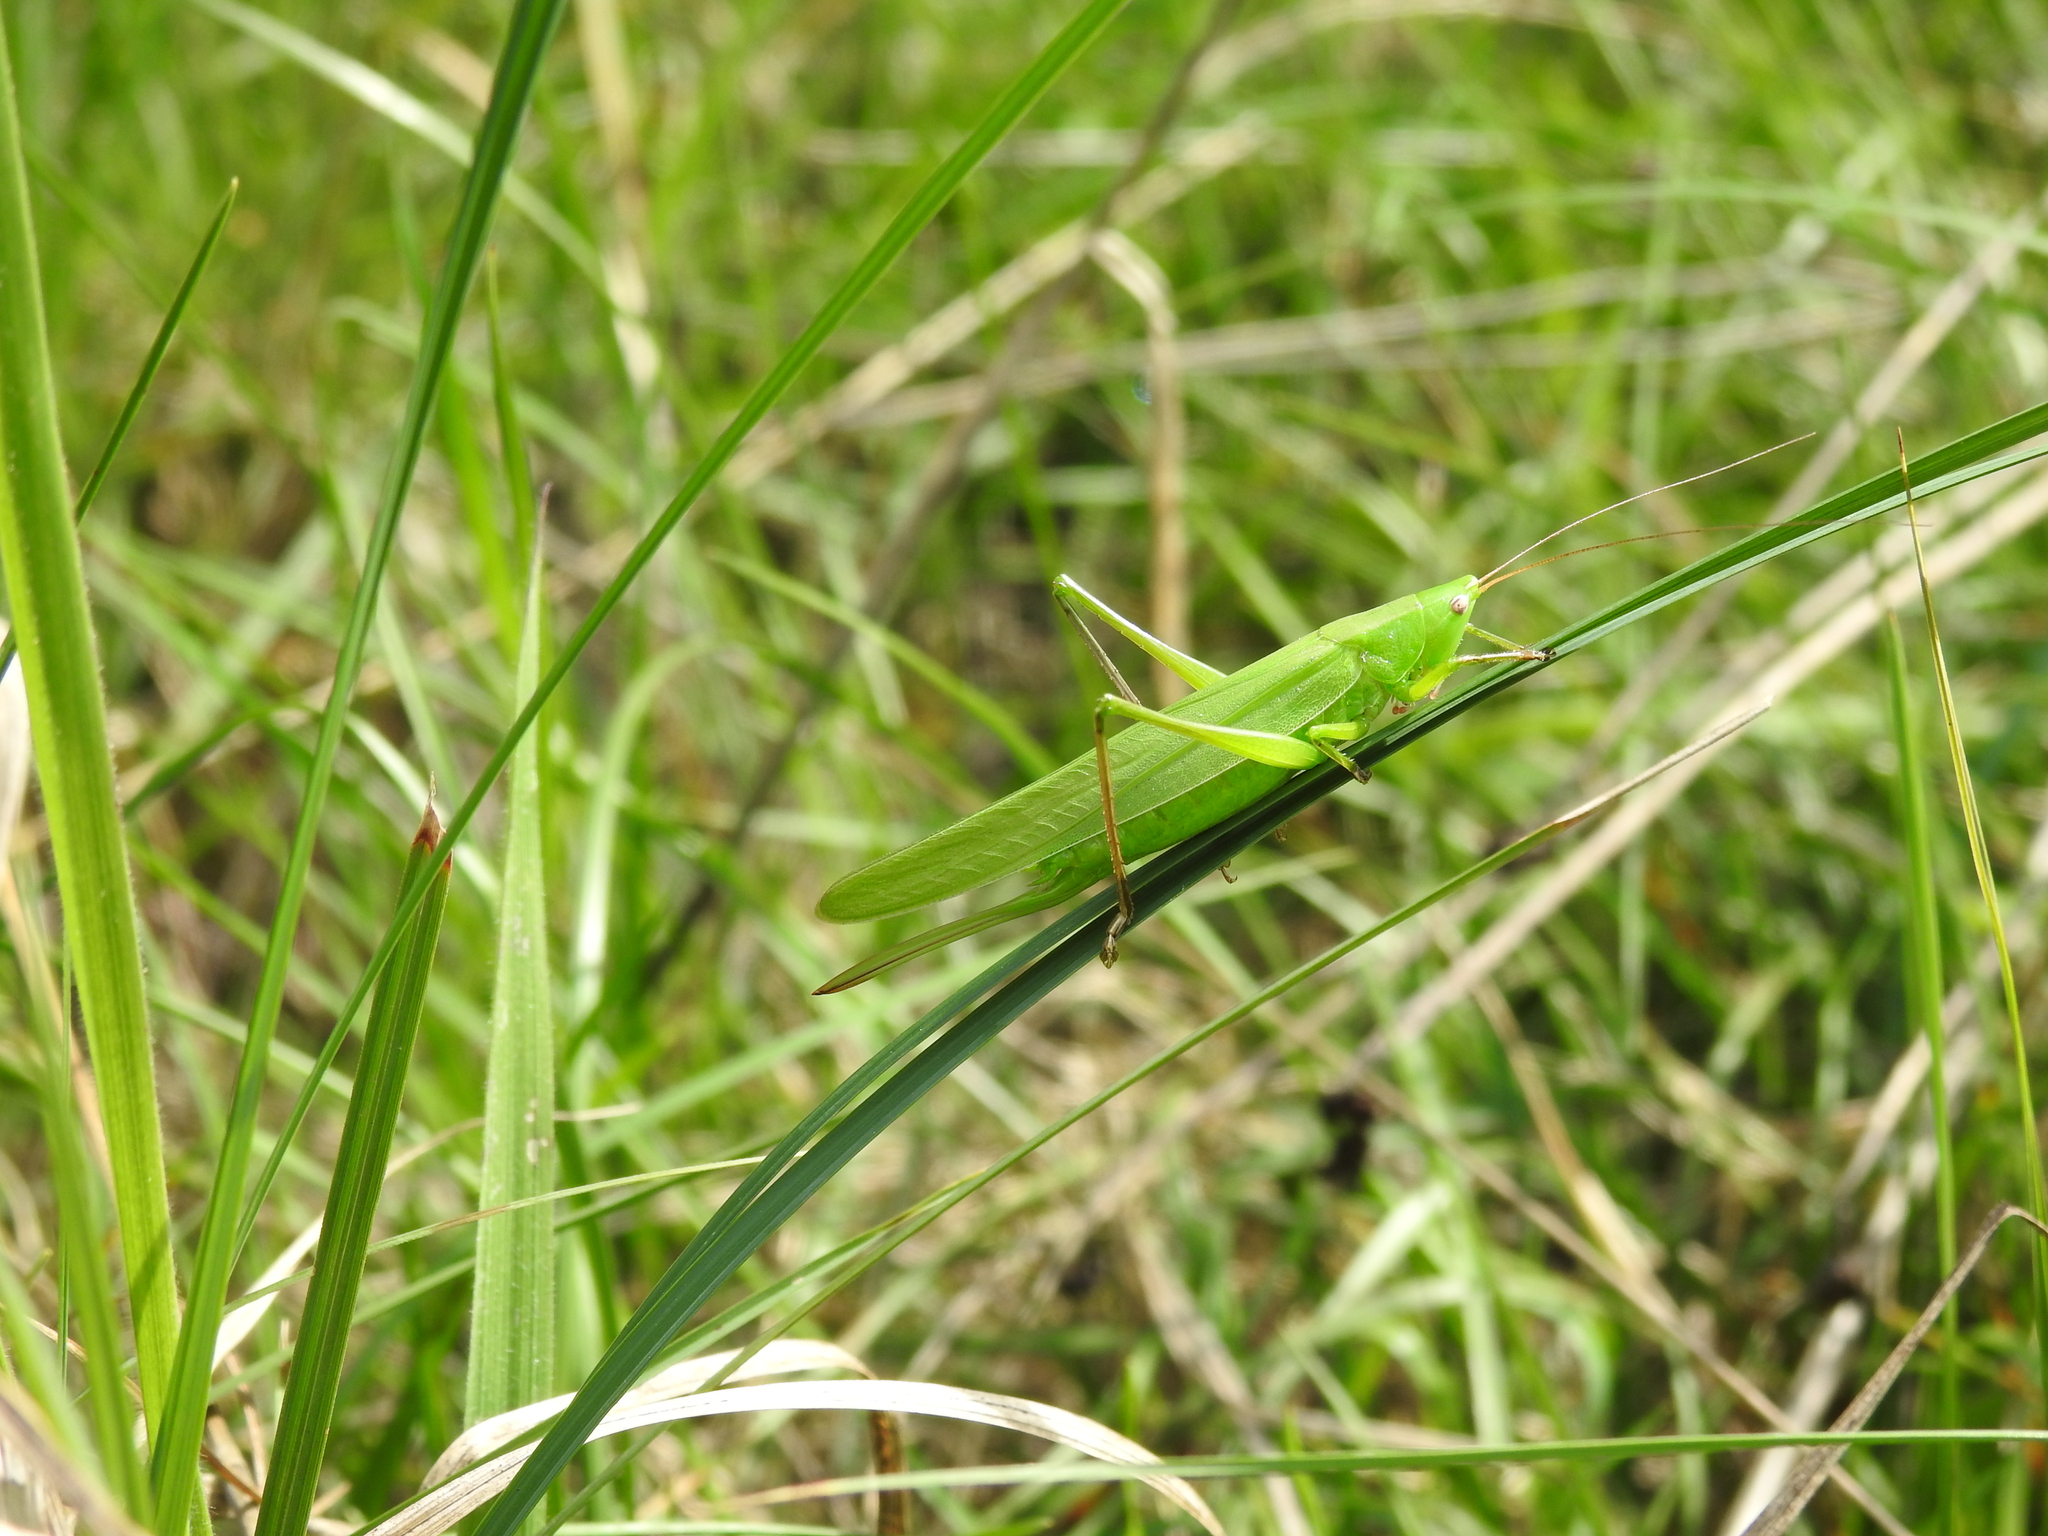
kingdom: Animalia
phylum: Arthropoda
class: Insecta
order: Orthoptera
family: Tettigoniidae
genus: Ruspolia
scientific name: Ruspolia nitidula
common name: Large conehead
